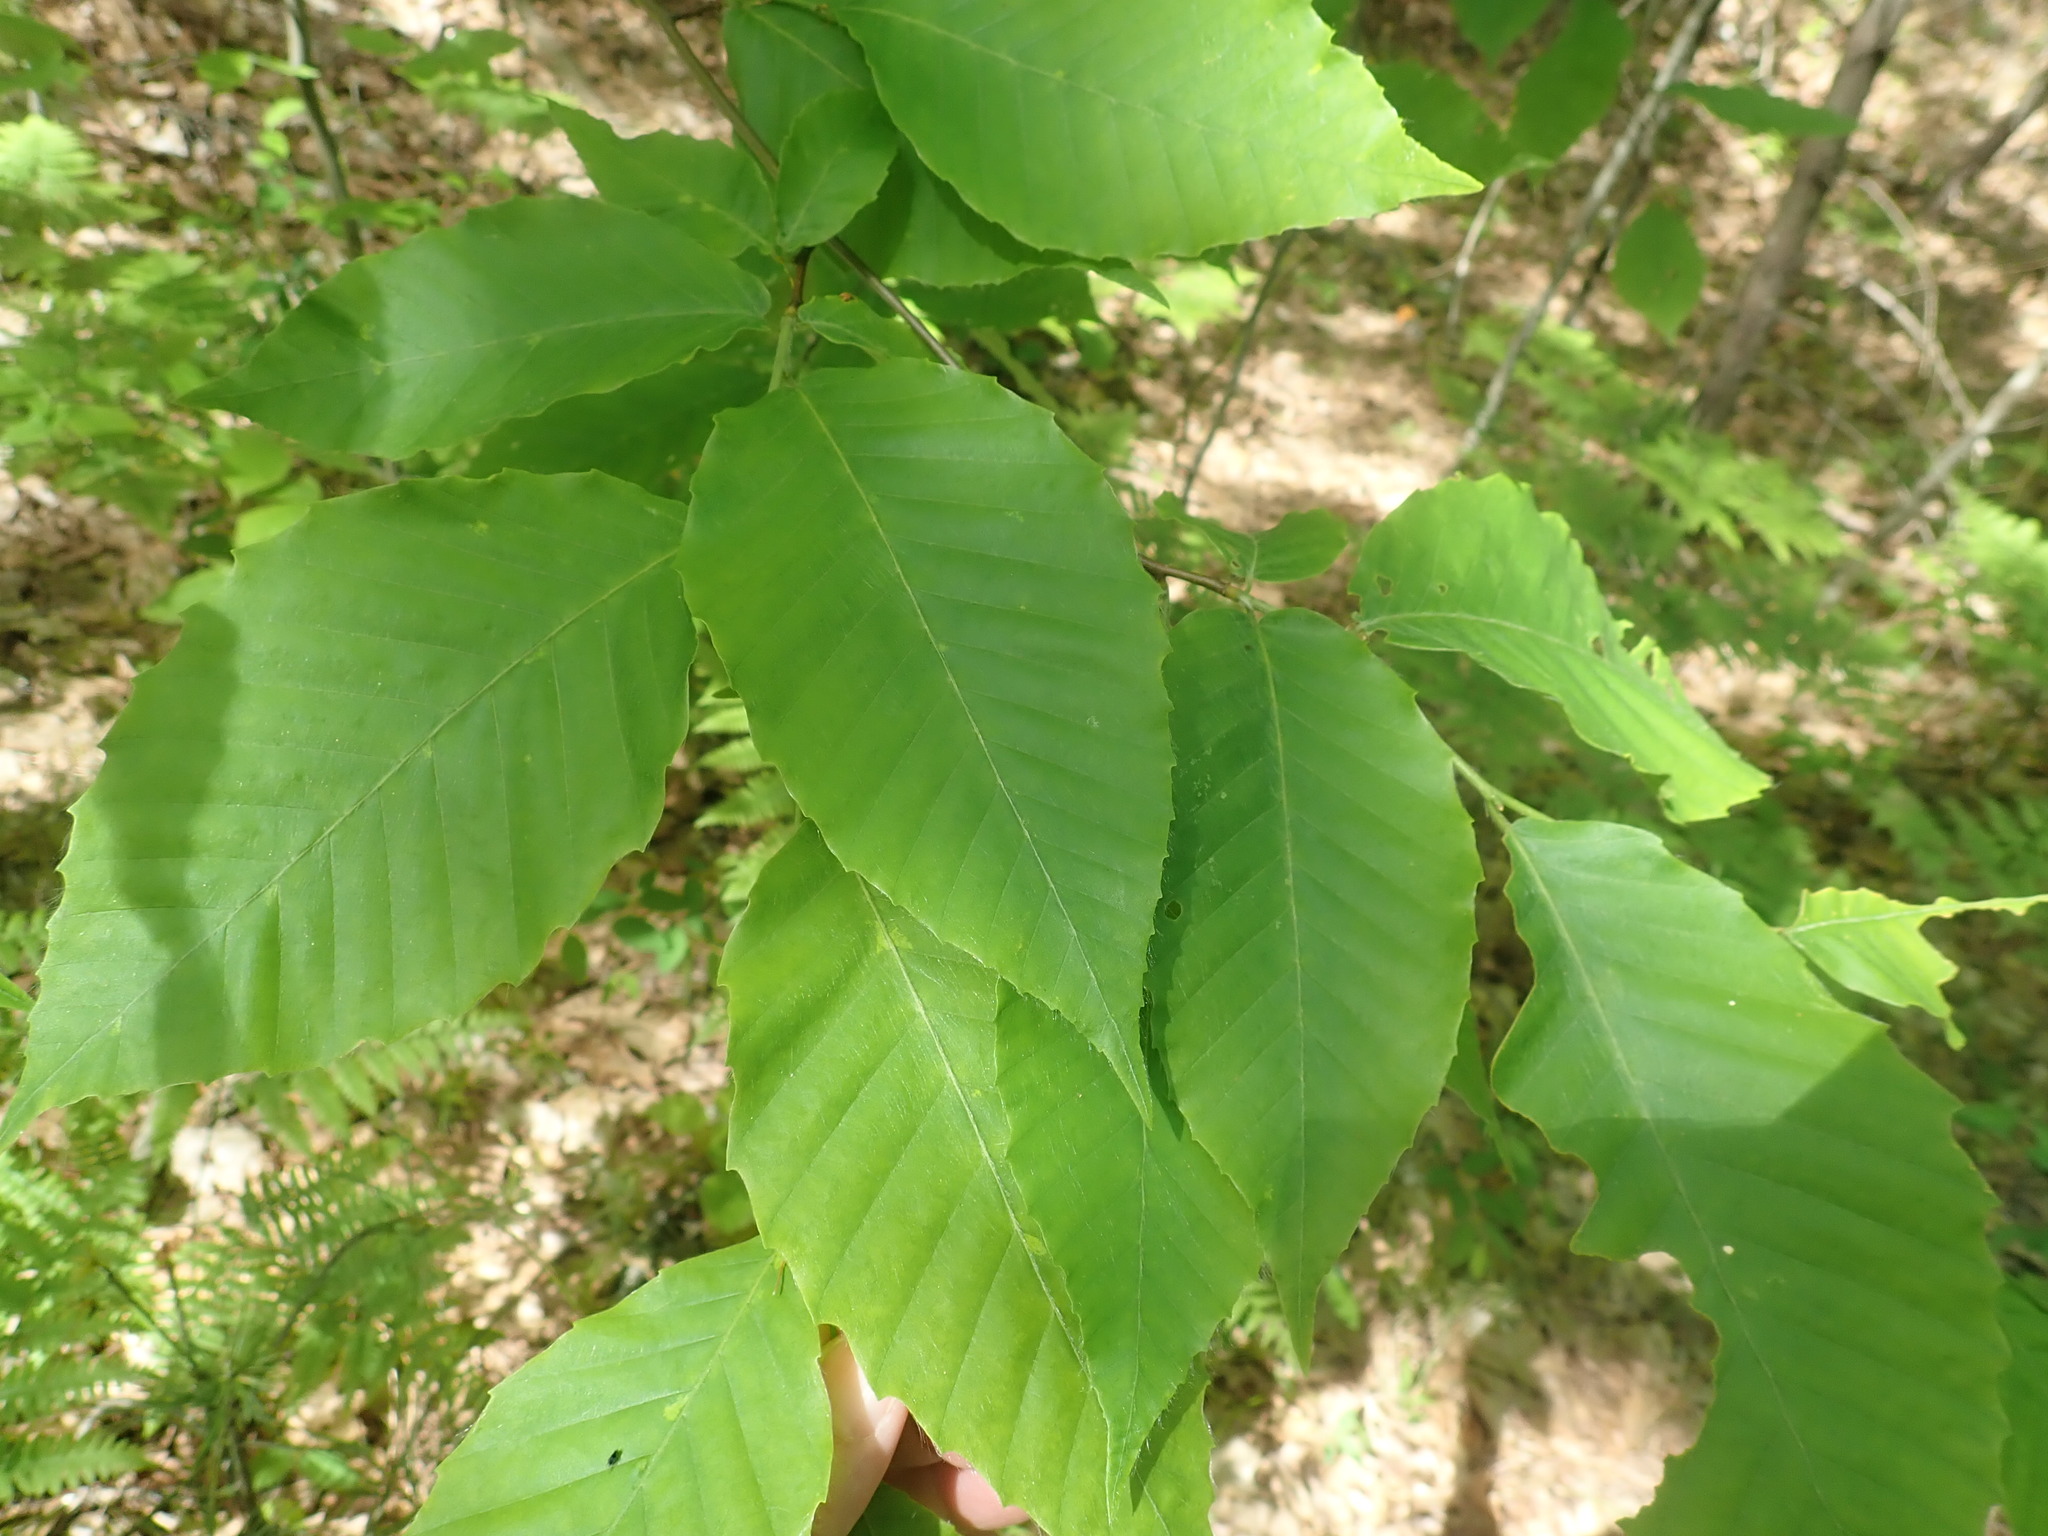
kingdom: Plantae
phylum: Tracheophyta
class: Magnoliopsida
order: Fagales
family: Fagaceae
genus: Fagus
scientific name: Fagus grandifolia
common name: American beech
